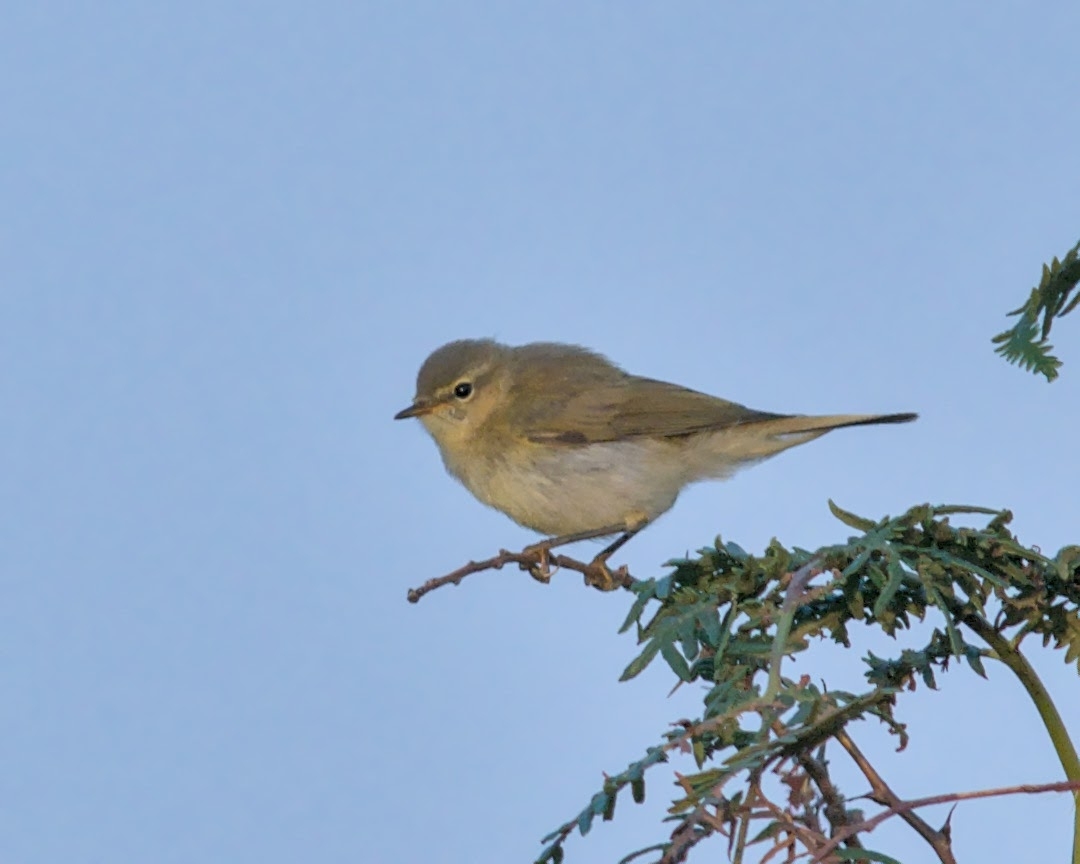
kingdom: Animalia
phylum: Chordata
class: Aves
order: Passeriformes
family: Phylloscopidae
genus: Phylloscopus
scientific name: Phylloscopus collybita
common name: Common chiffchaff
